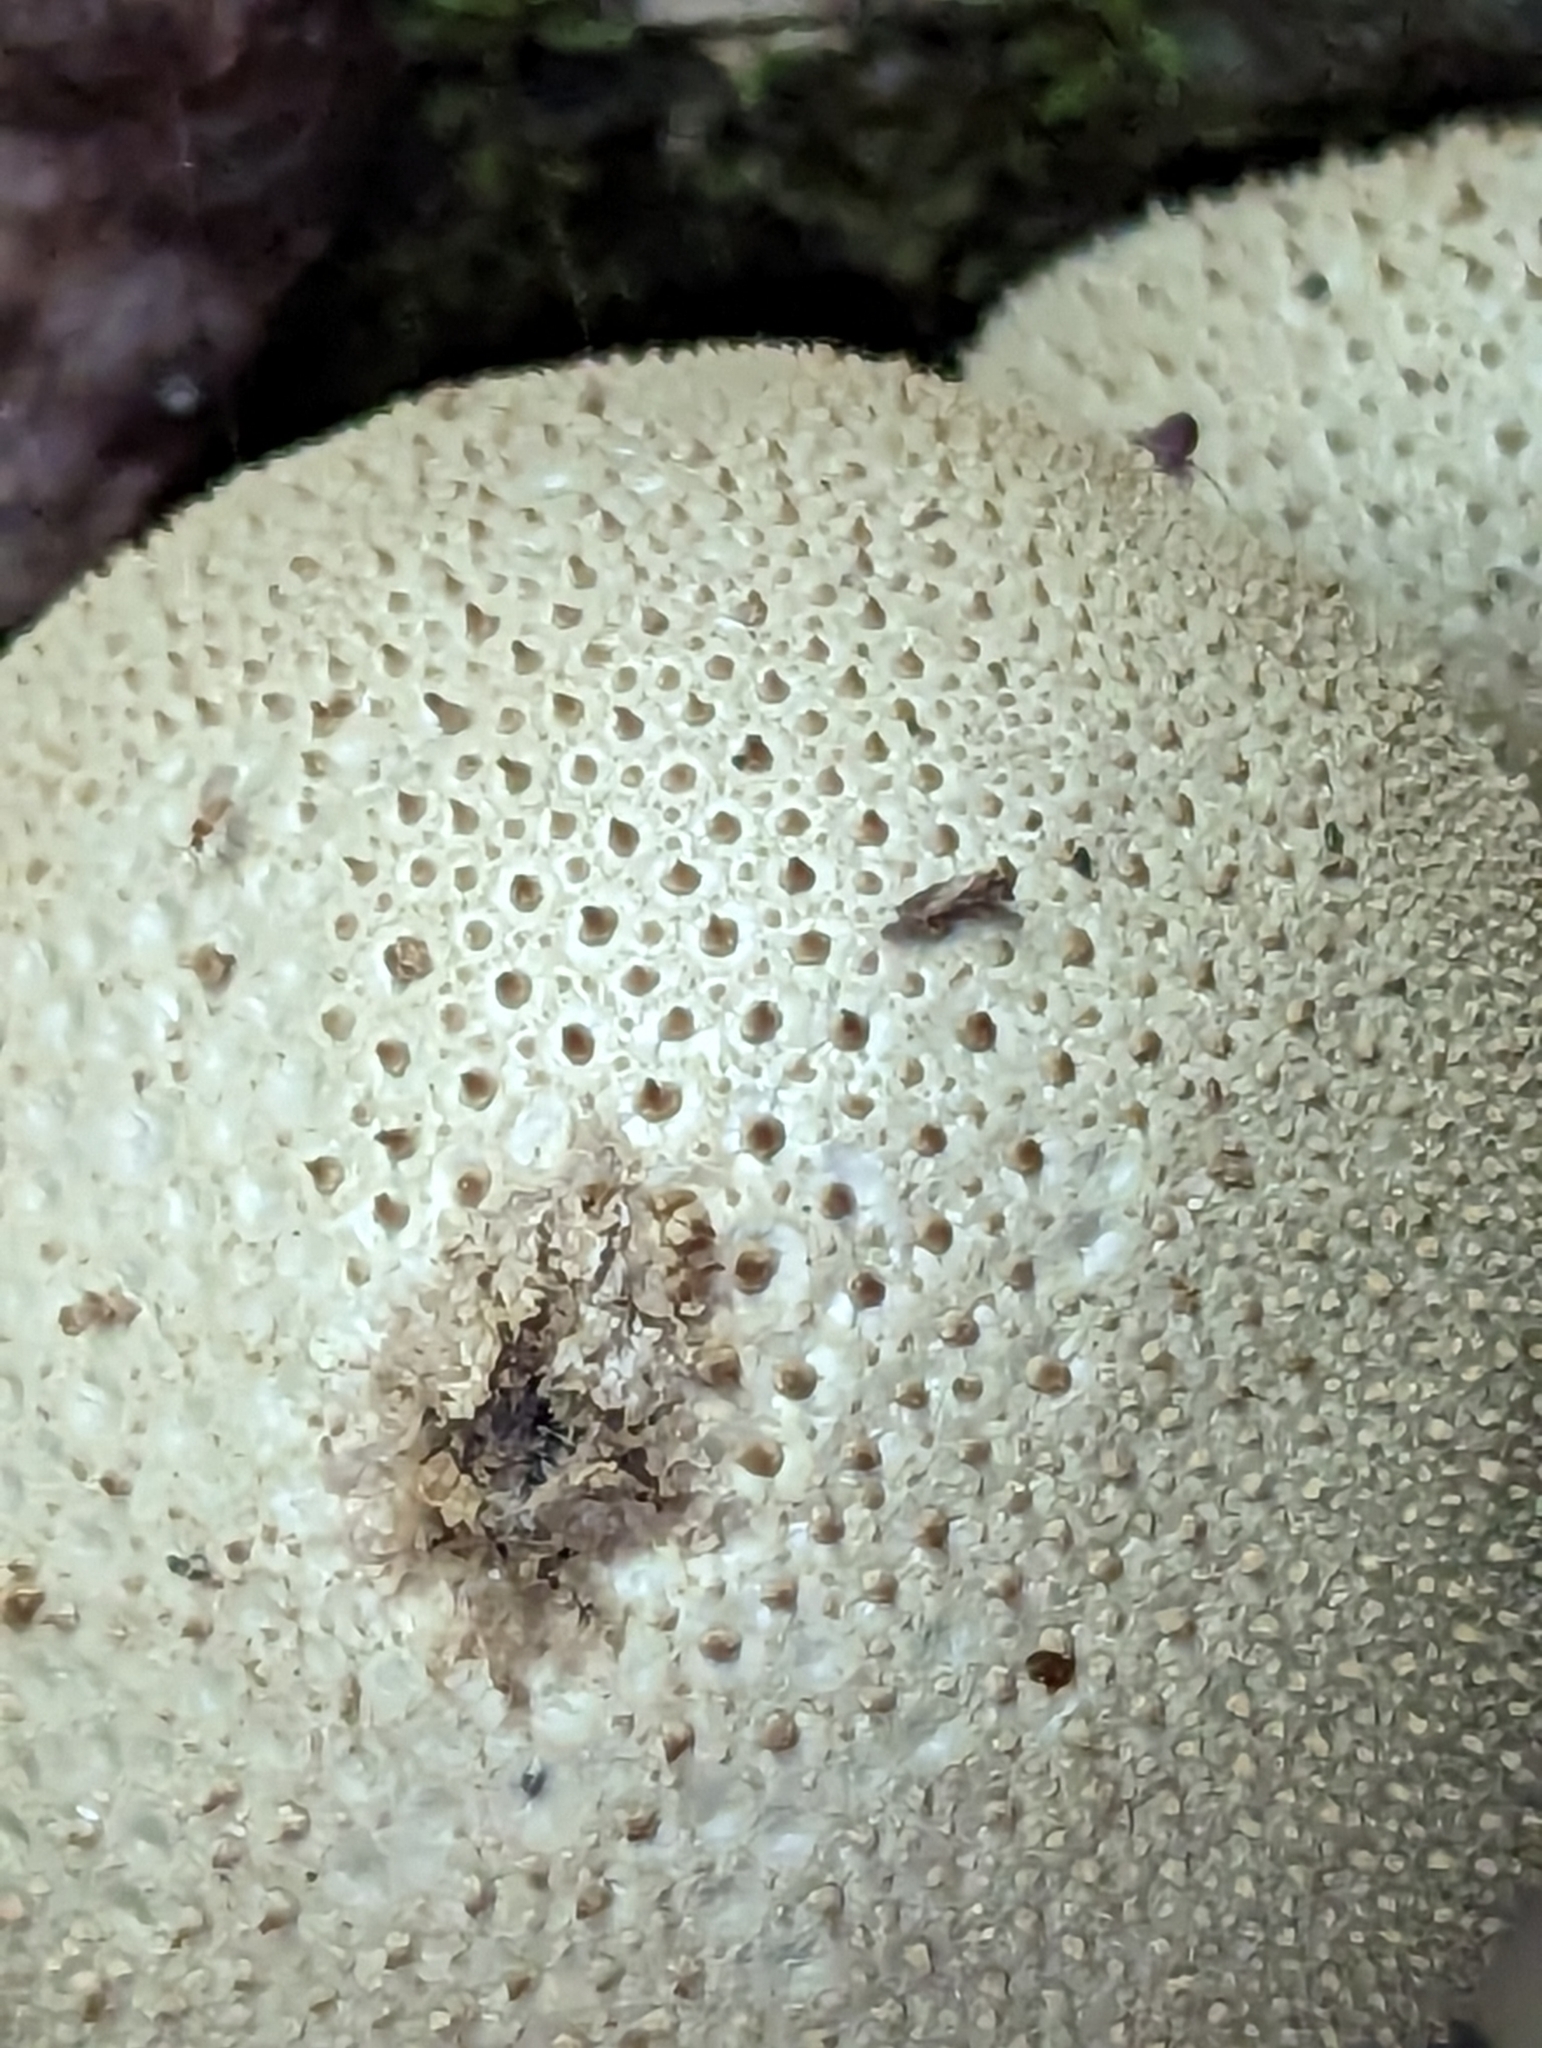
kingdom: Fungi
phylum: Basidiomycota
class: Agaricomycetes
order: Agaricales
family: Lycoperdaceae
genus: Lycoperdon
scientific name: Lycoperdon perlatum
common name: Common puffball
